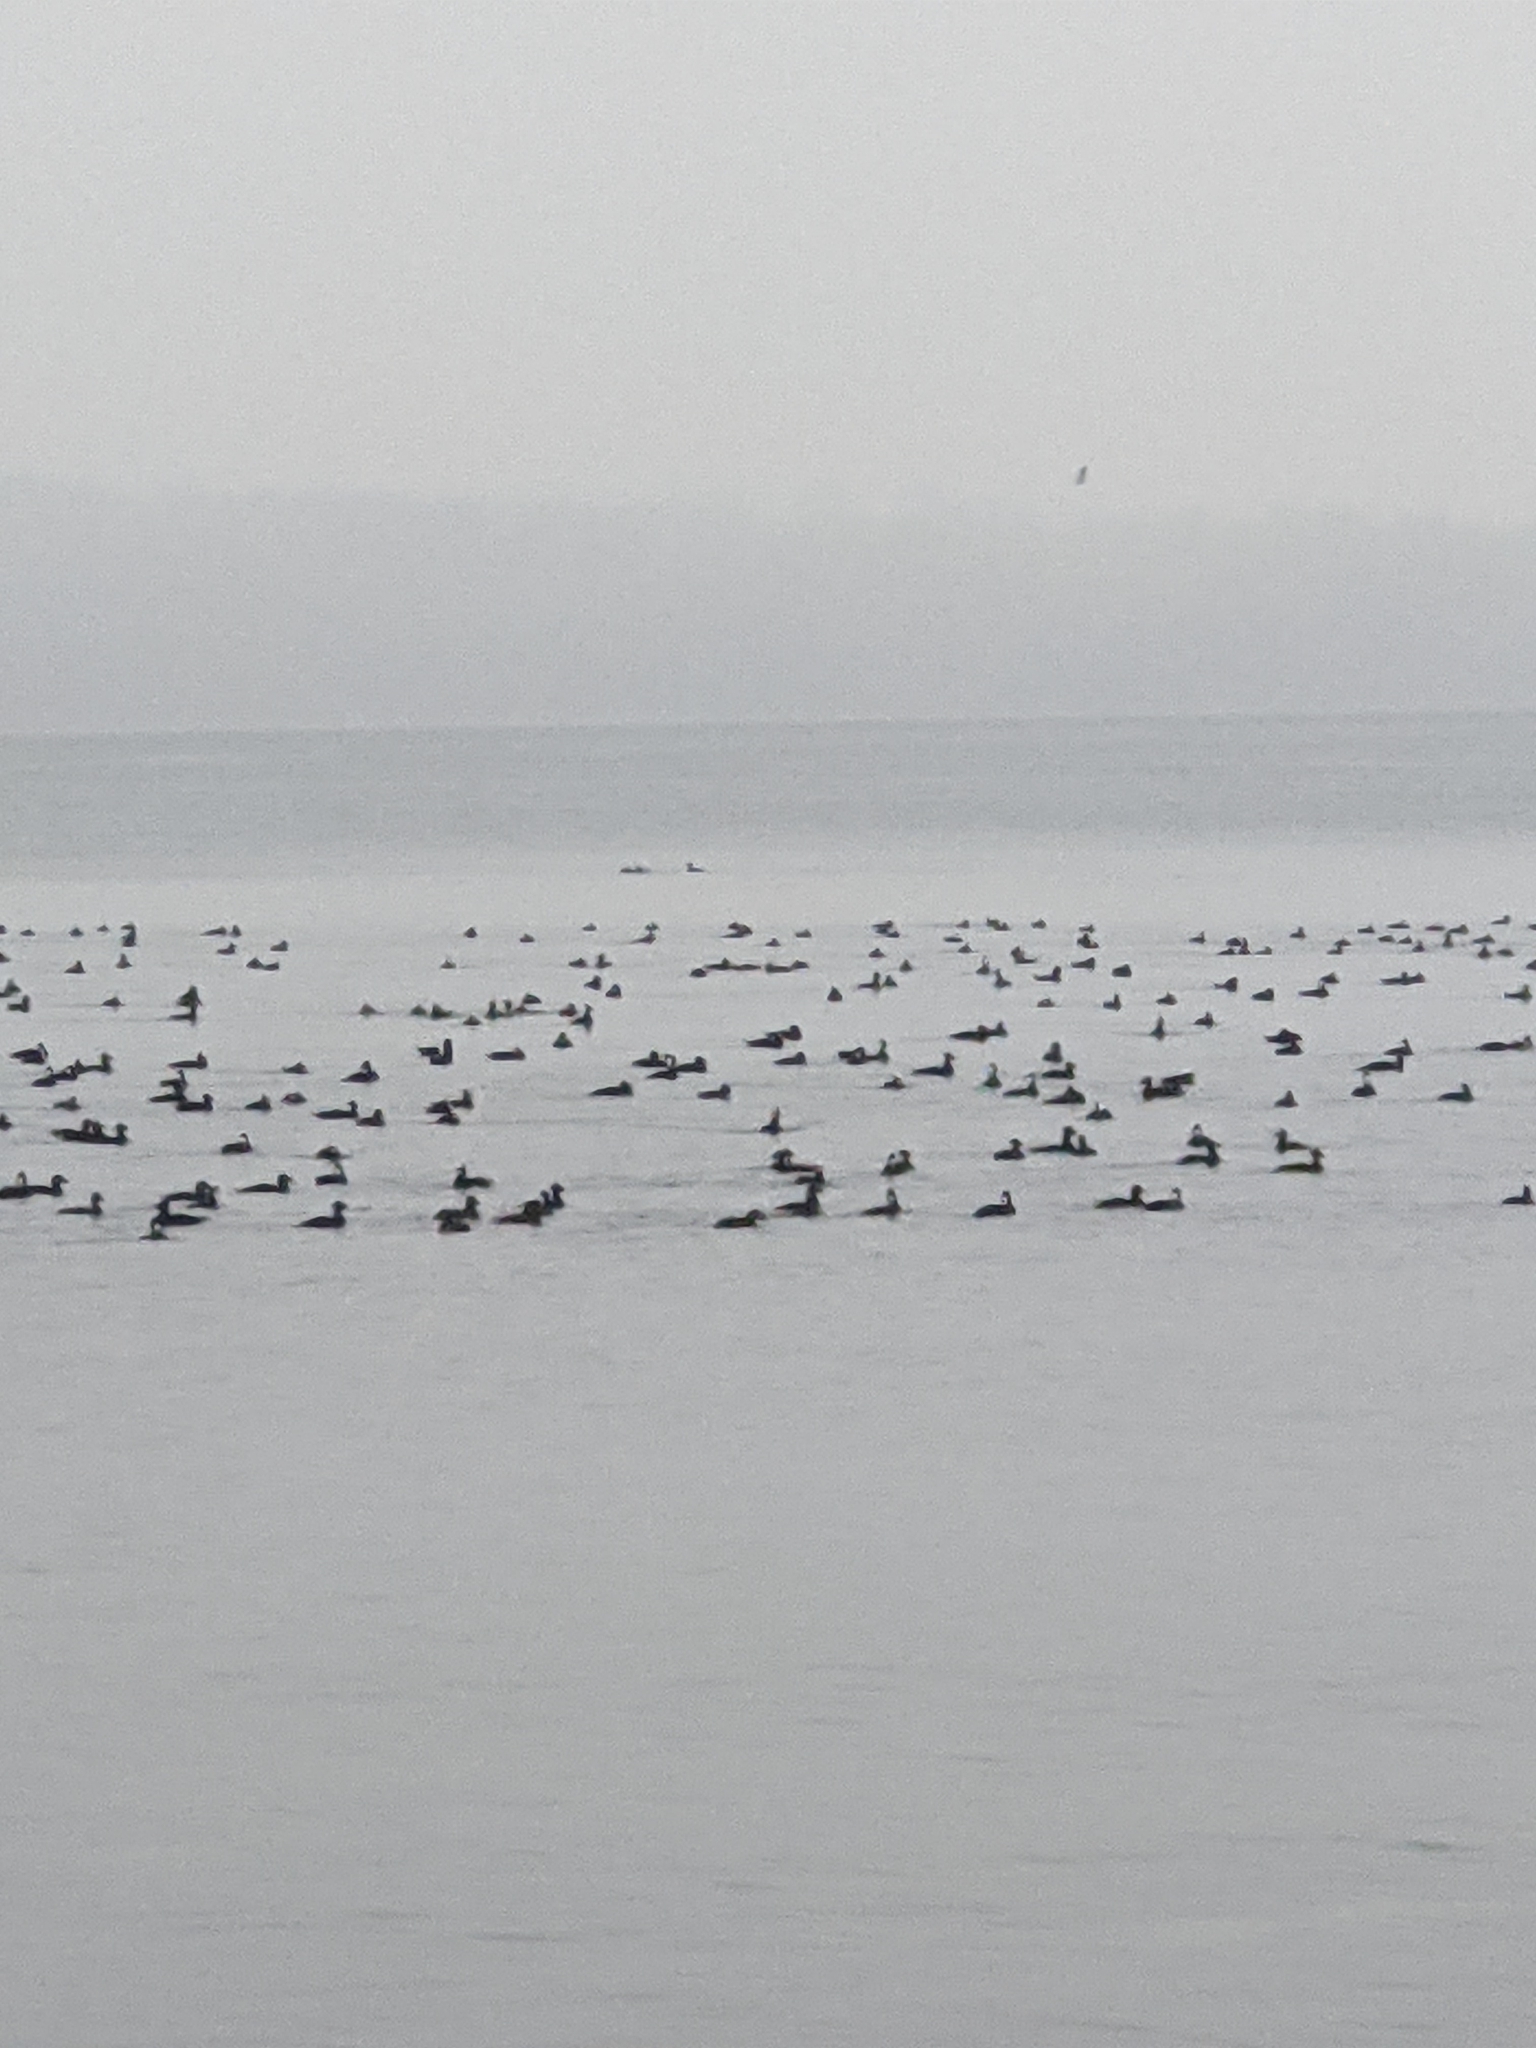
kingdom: Animalia
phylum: Chordata
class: Aves
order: Anseriformes
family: Anatidae
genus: Melanitta
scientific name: Melanitta perspicillata
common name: Surf scoter
